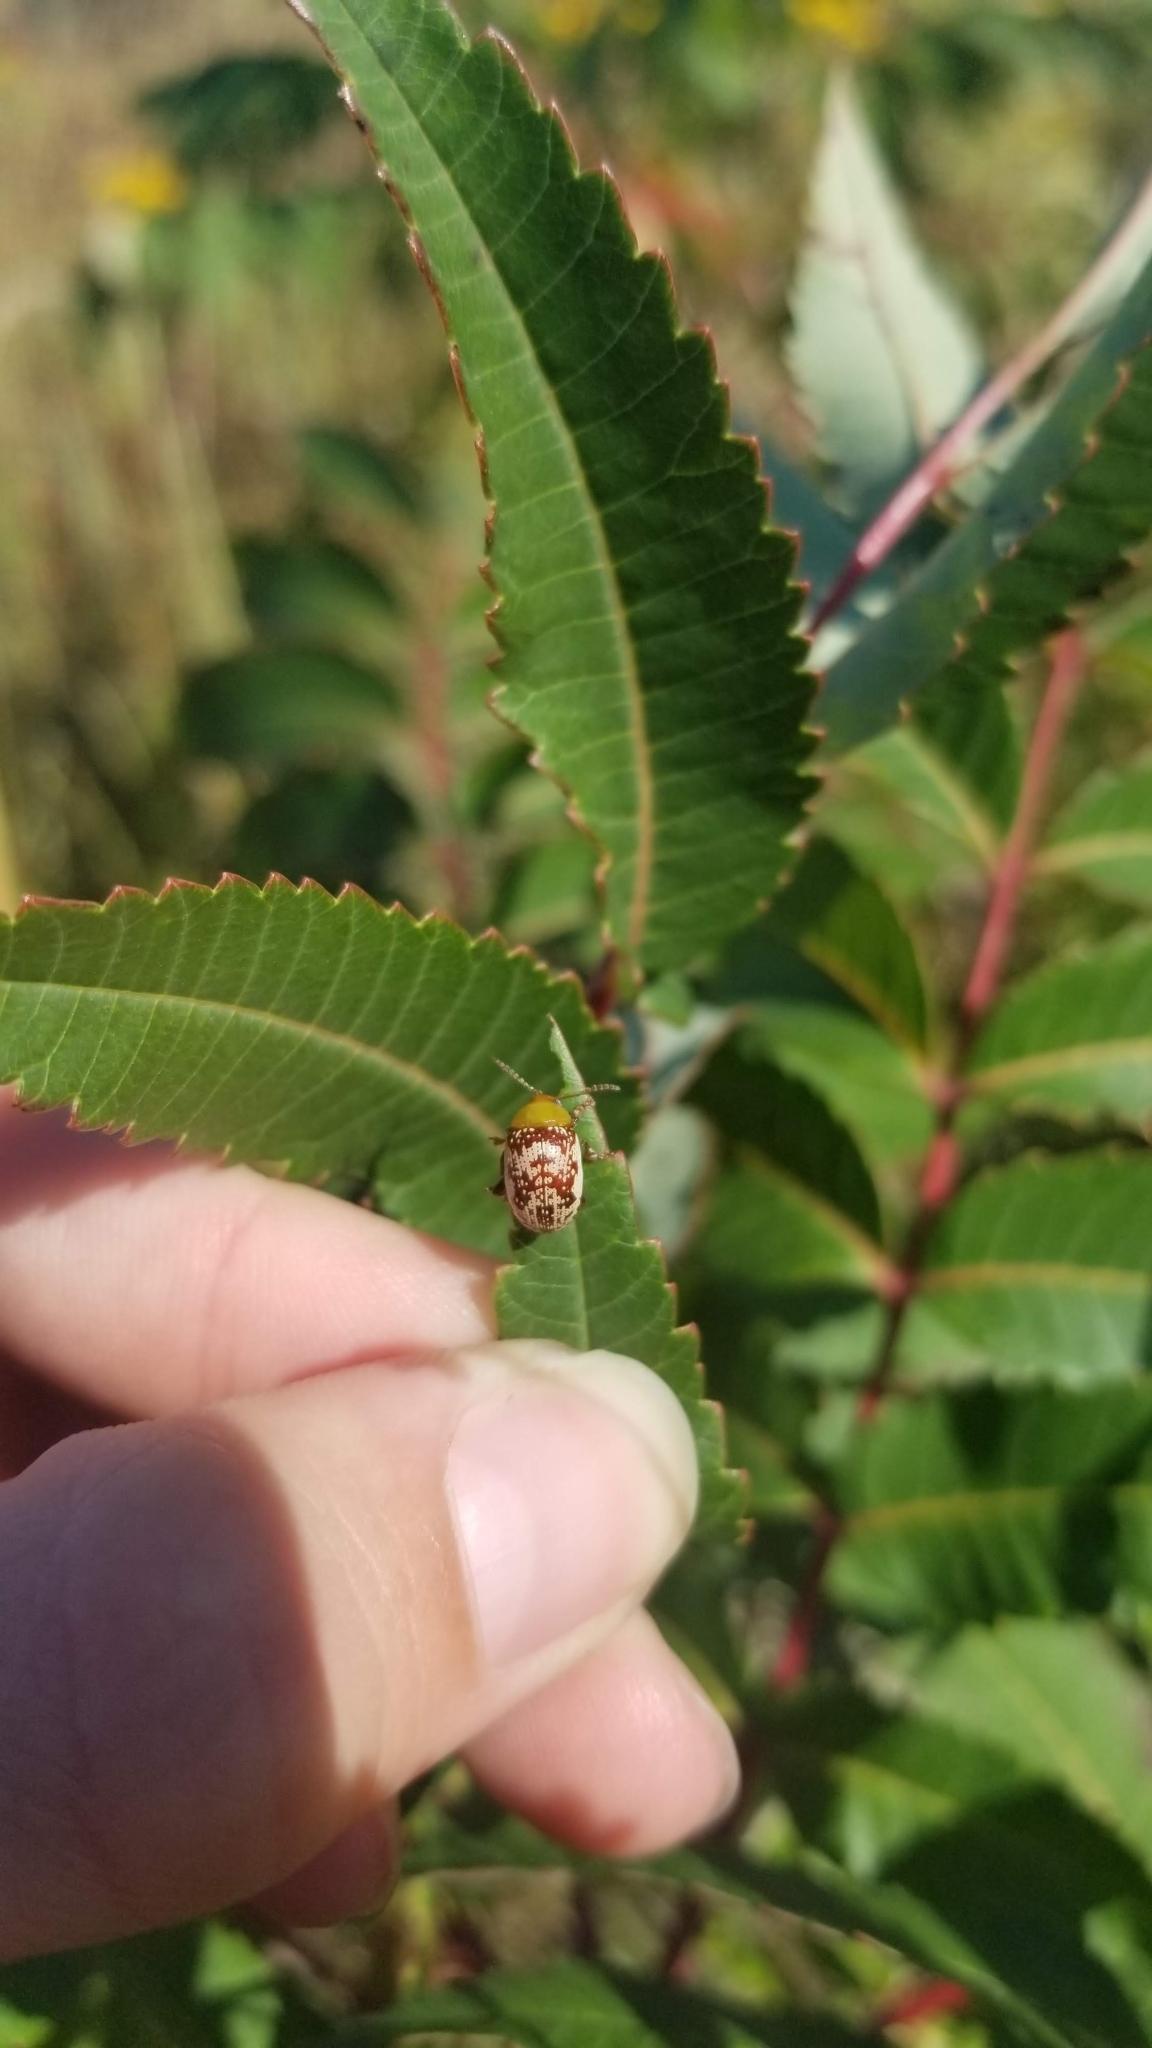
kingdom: Animalia
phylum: Arthropoda
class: Insecta
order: Coleoptera
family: Chrysomelidae
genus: Blepharida
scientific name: Blepharida rhois
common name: Sumac flea beetle
